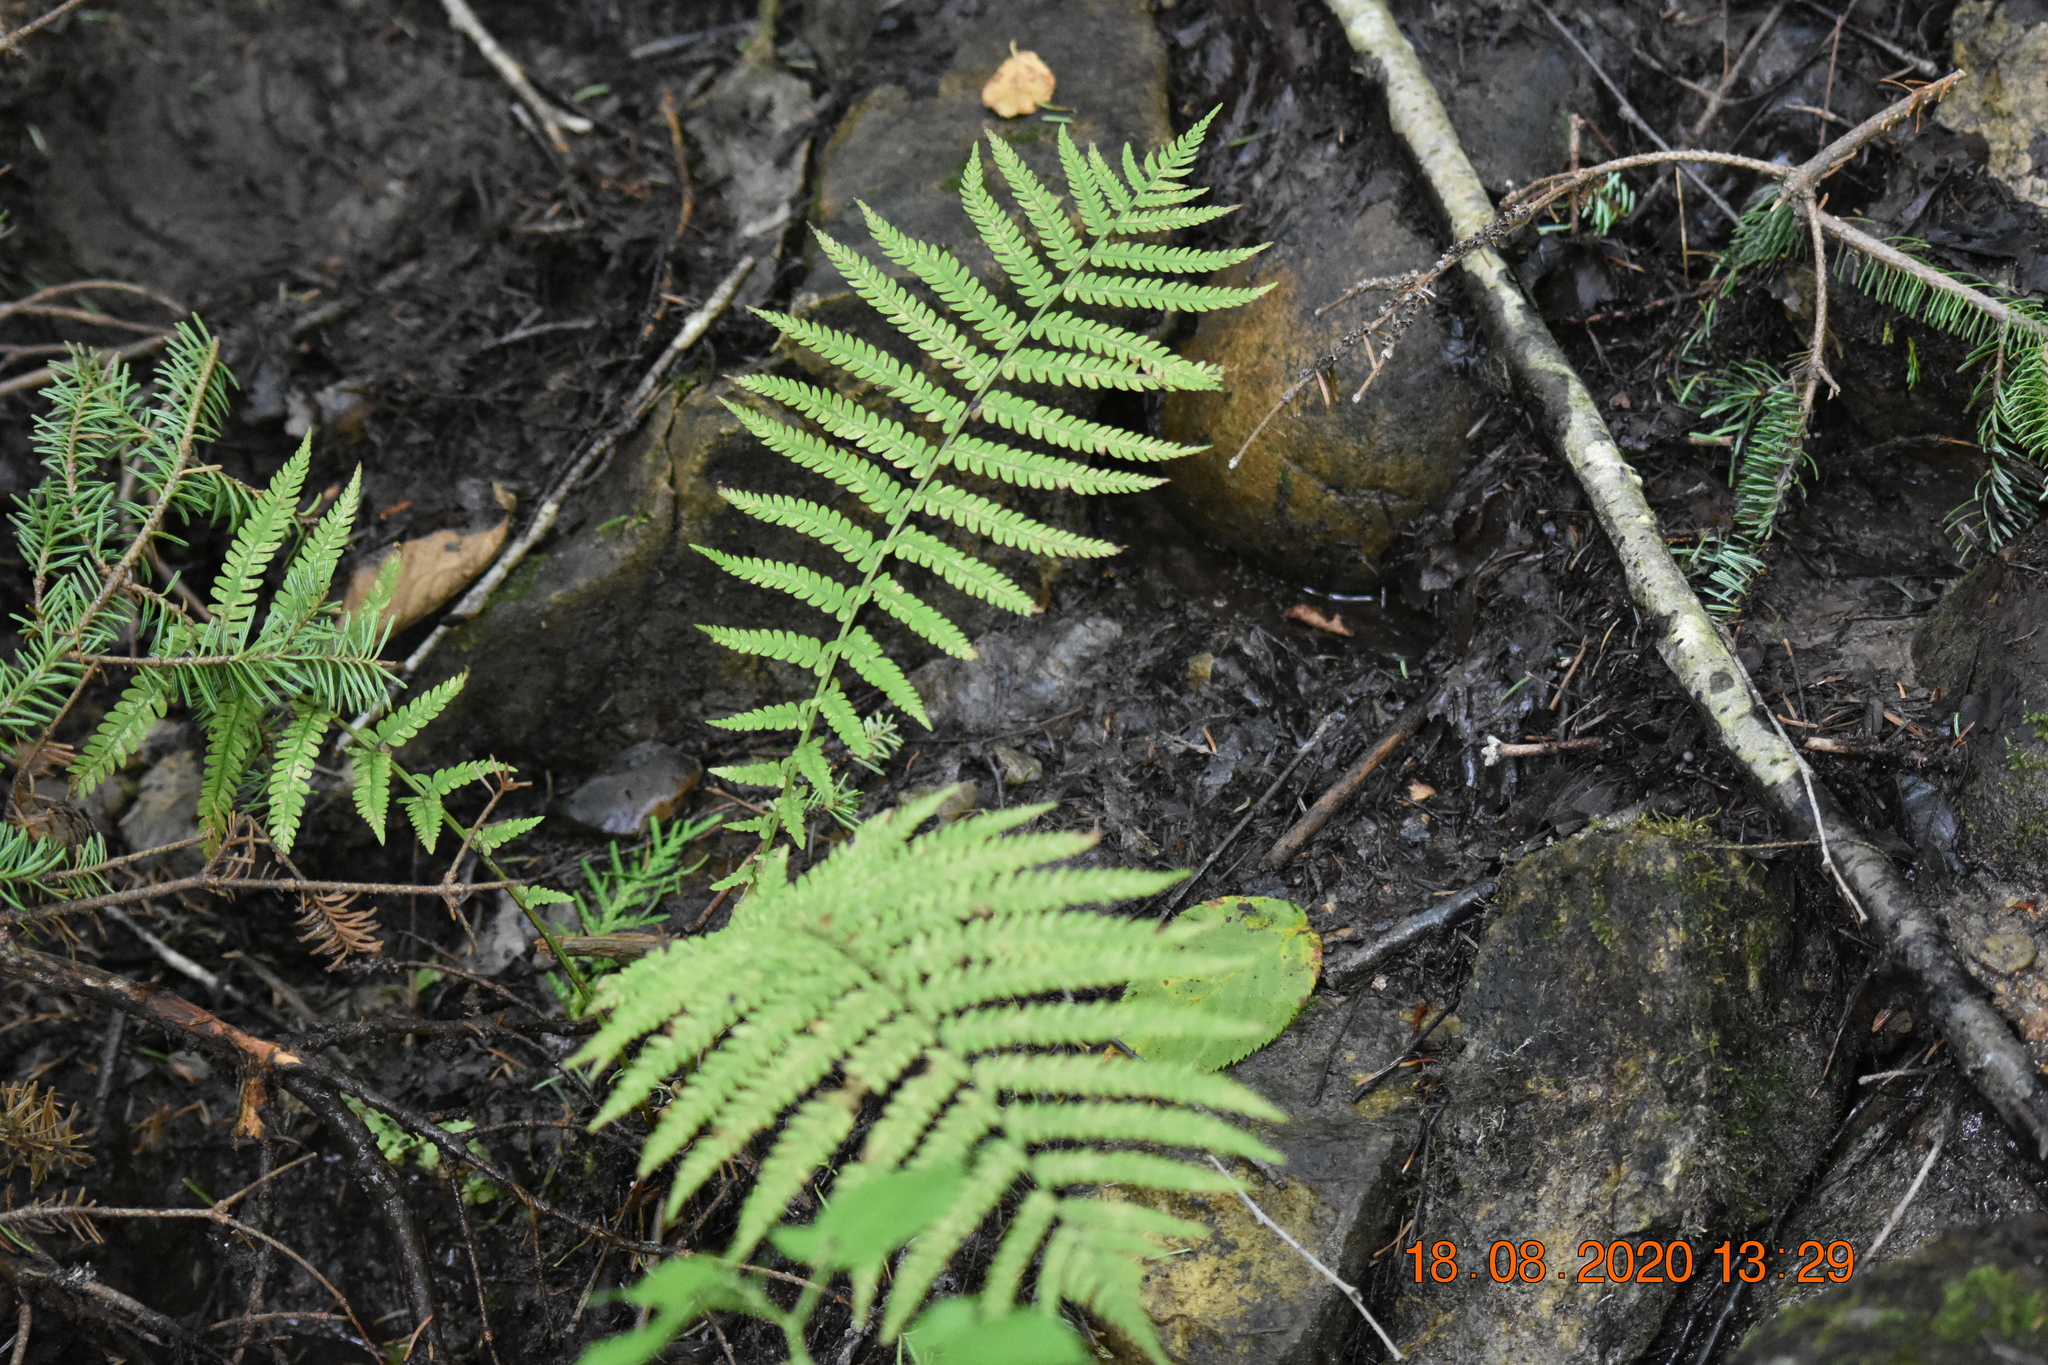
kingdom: Plantae
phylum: Tracheophyta
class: Polypodiopsida
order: Polypodiales
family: Onocleaceae
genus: Matteuccia
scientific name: Matteuccia struthiopteris
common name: Ostrich fern
